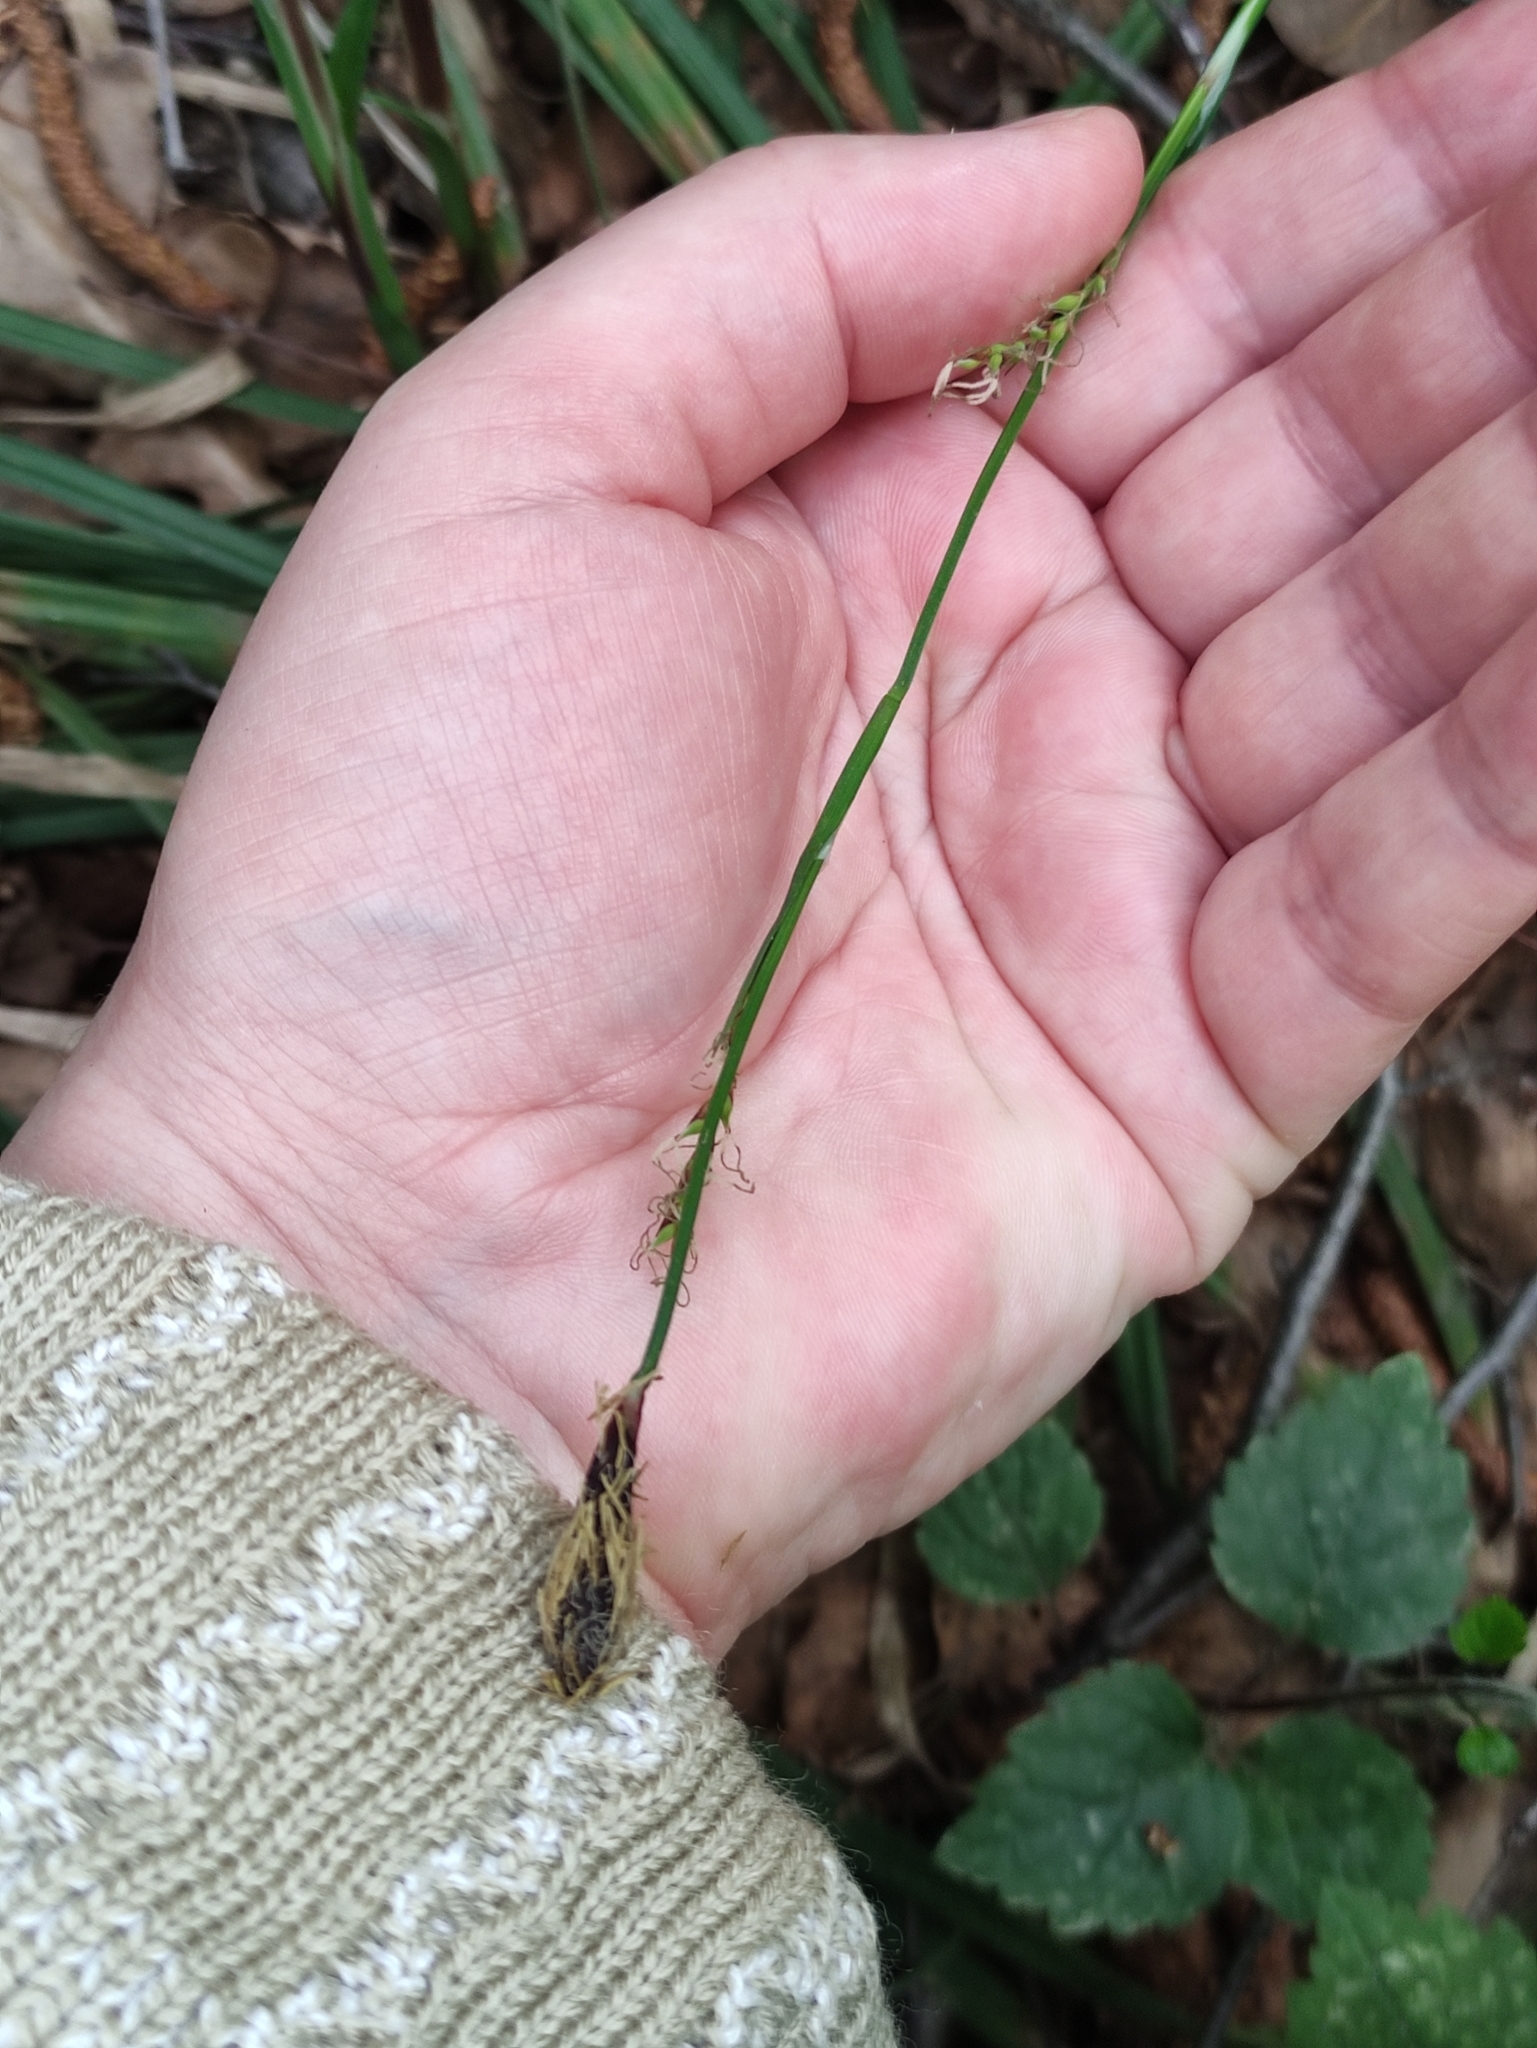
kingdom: Plantae
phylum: Tracheophyta
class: Liliopsida
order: Poales
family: Cyperaceae
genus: Carex
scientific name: Carex pilosa
